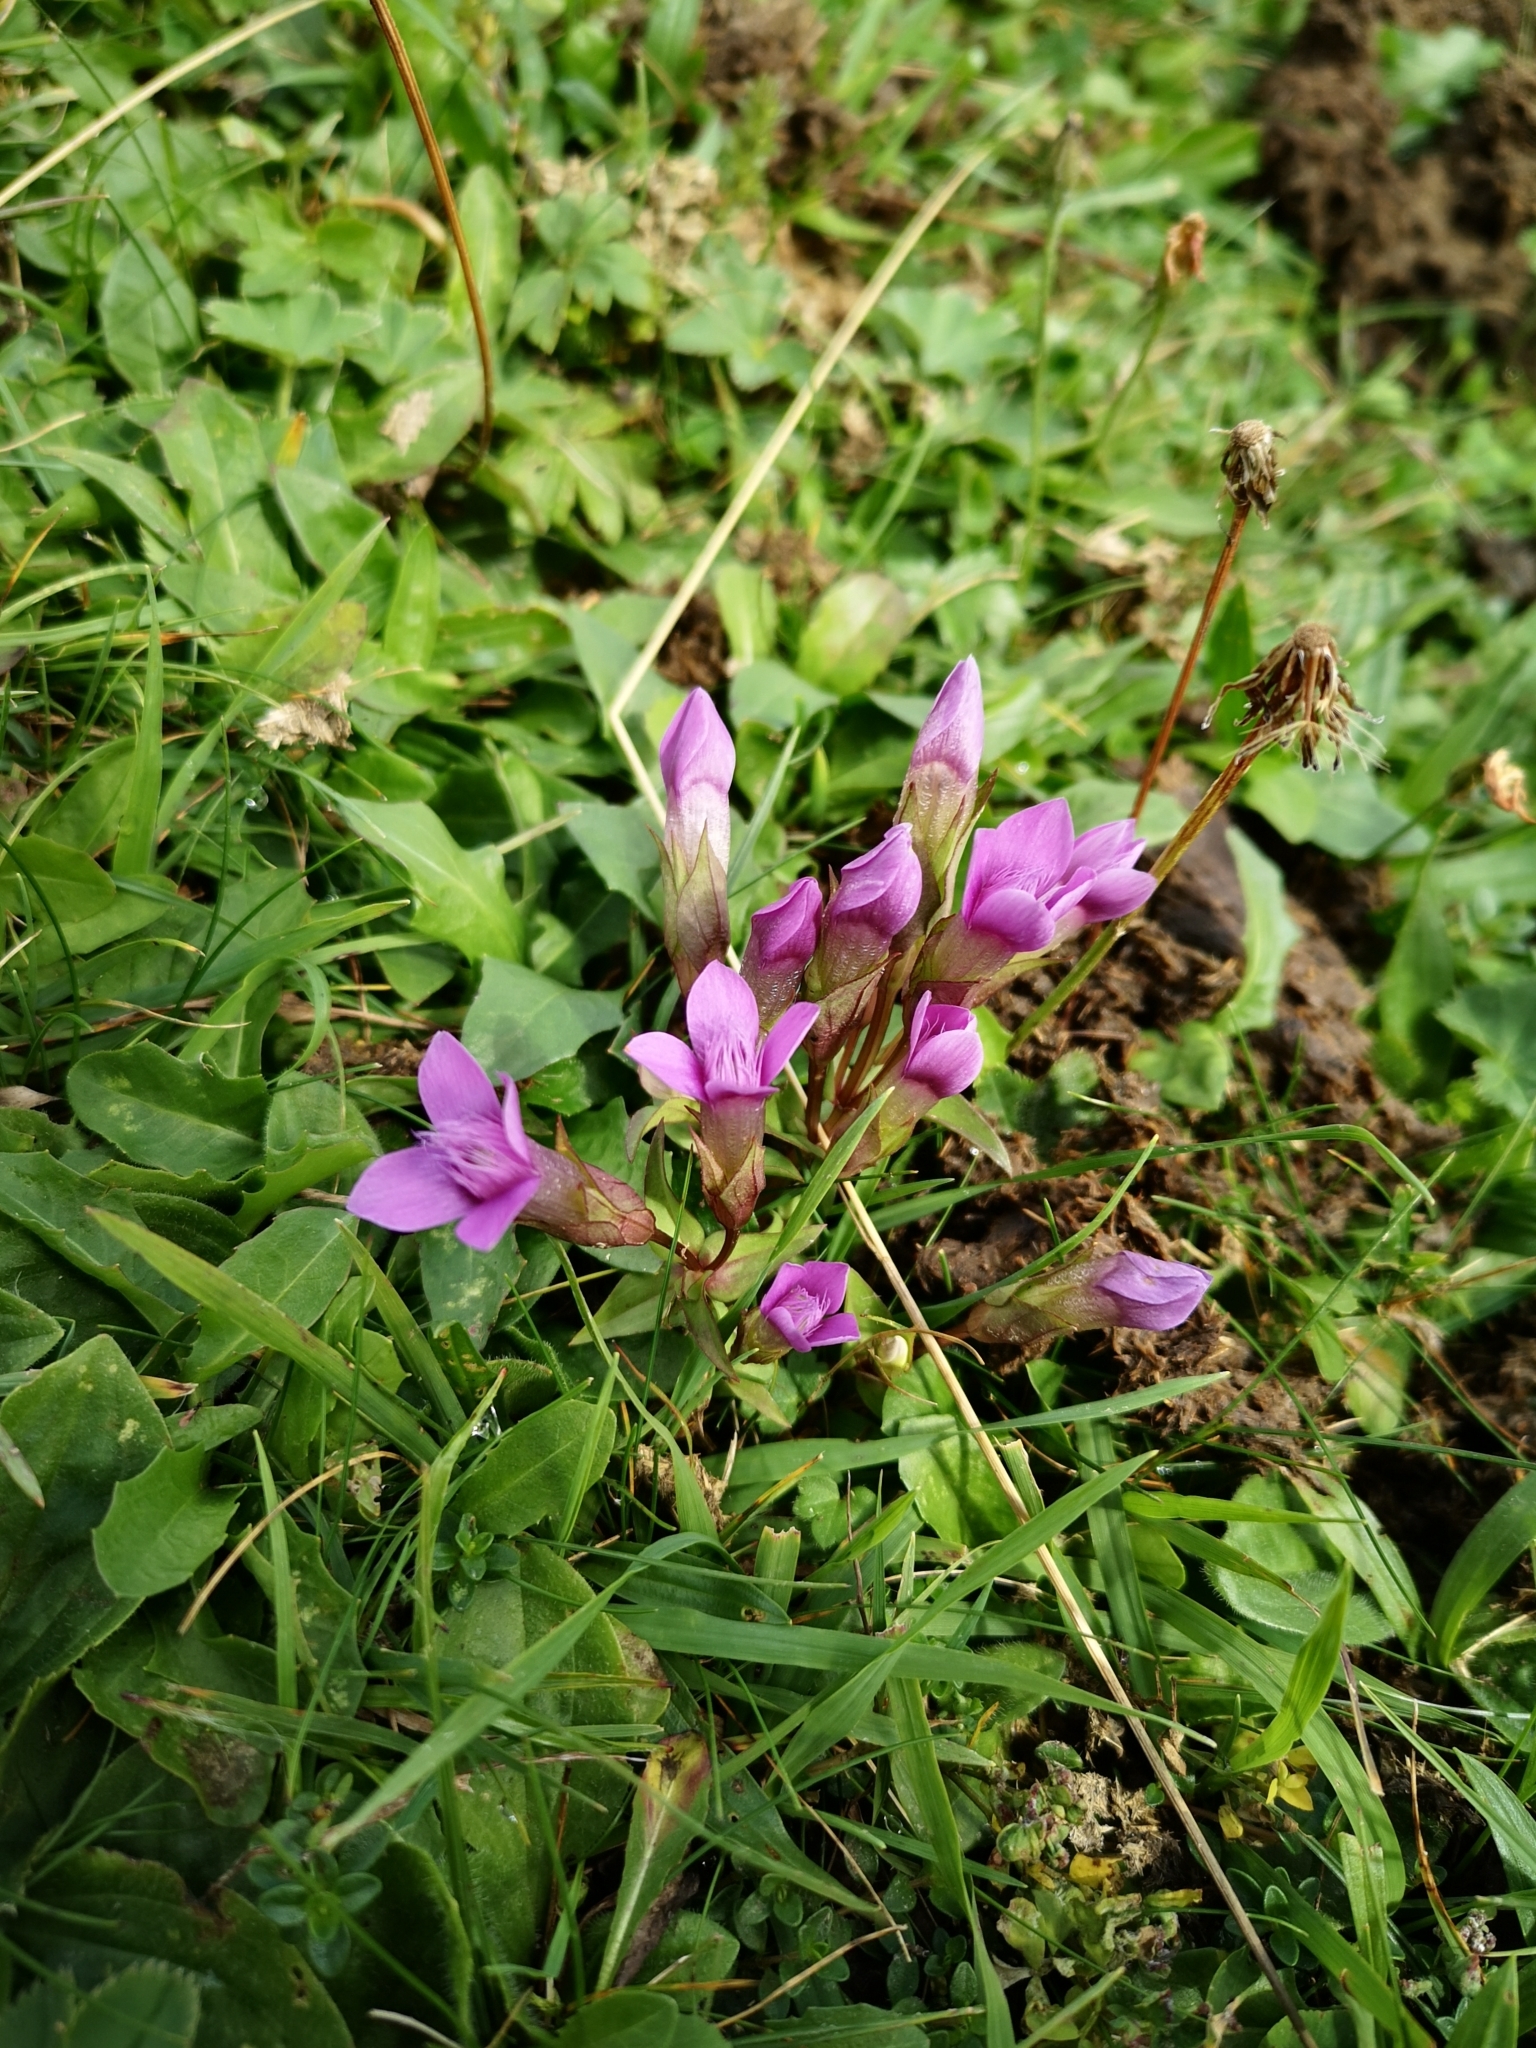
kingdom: Plantae
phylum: Tracheophyta
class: Magnoliopsida
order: Gentianales
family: Gentianaceae
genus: Gentianella
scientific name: Gentianella campestris
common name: Field gentian
